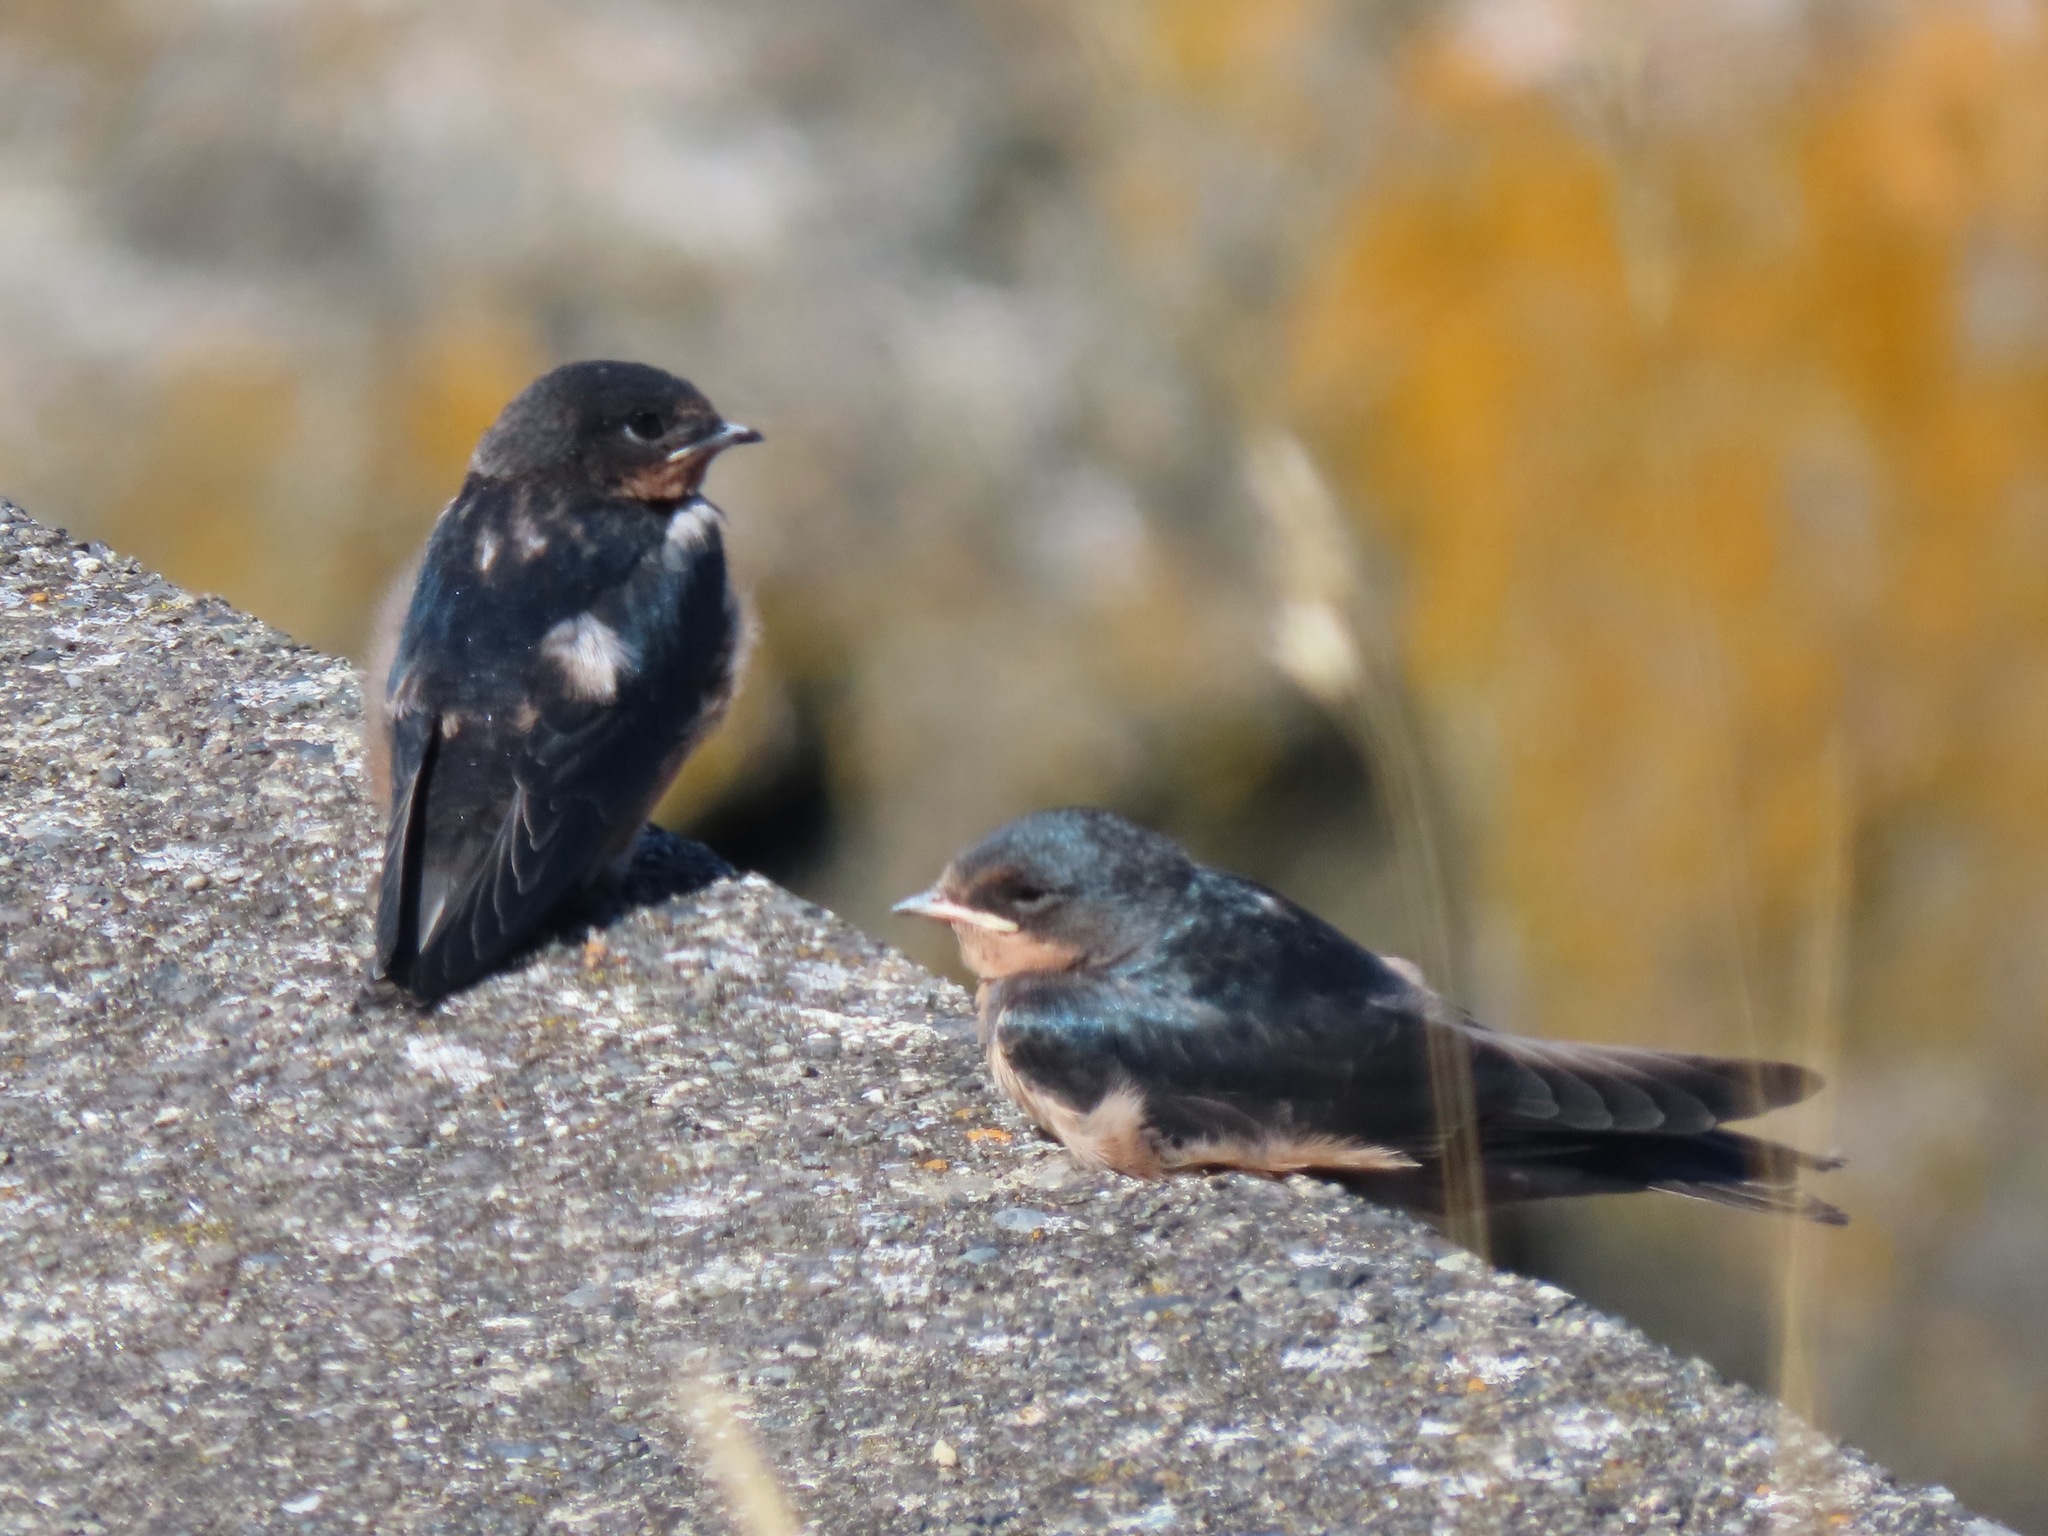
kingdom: Animalia
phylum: Chordata
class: Aves
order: Passeriformes
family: Hirundinidae
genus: Hirundo
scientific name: Hirundo rustica
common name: Barn swallow
